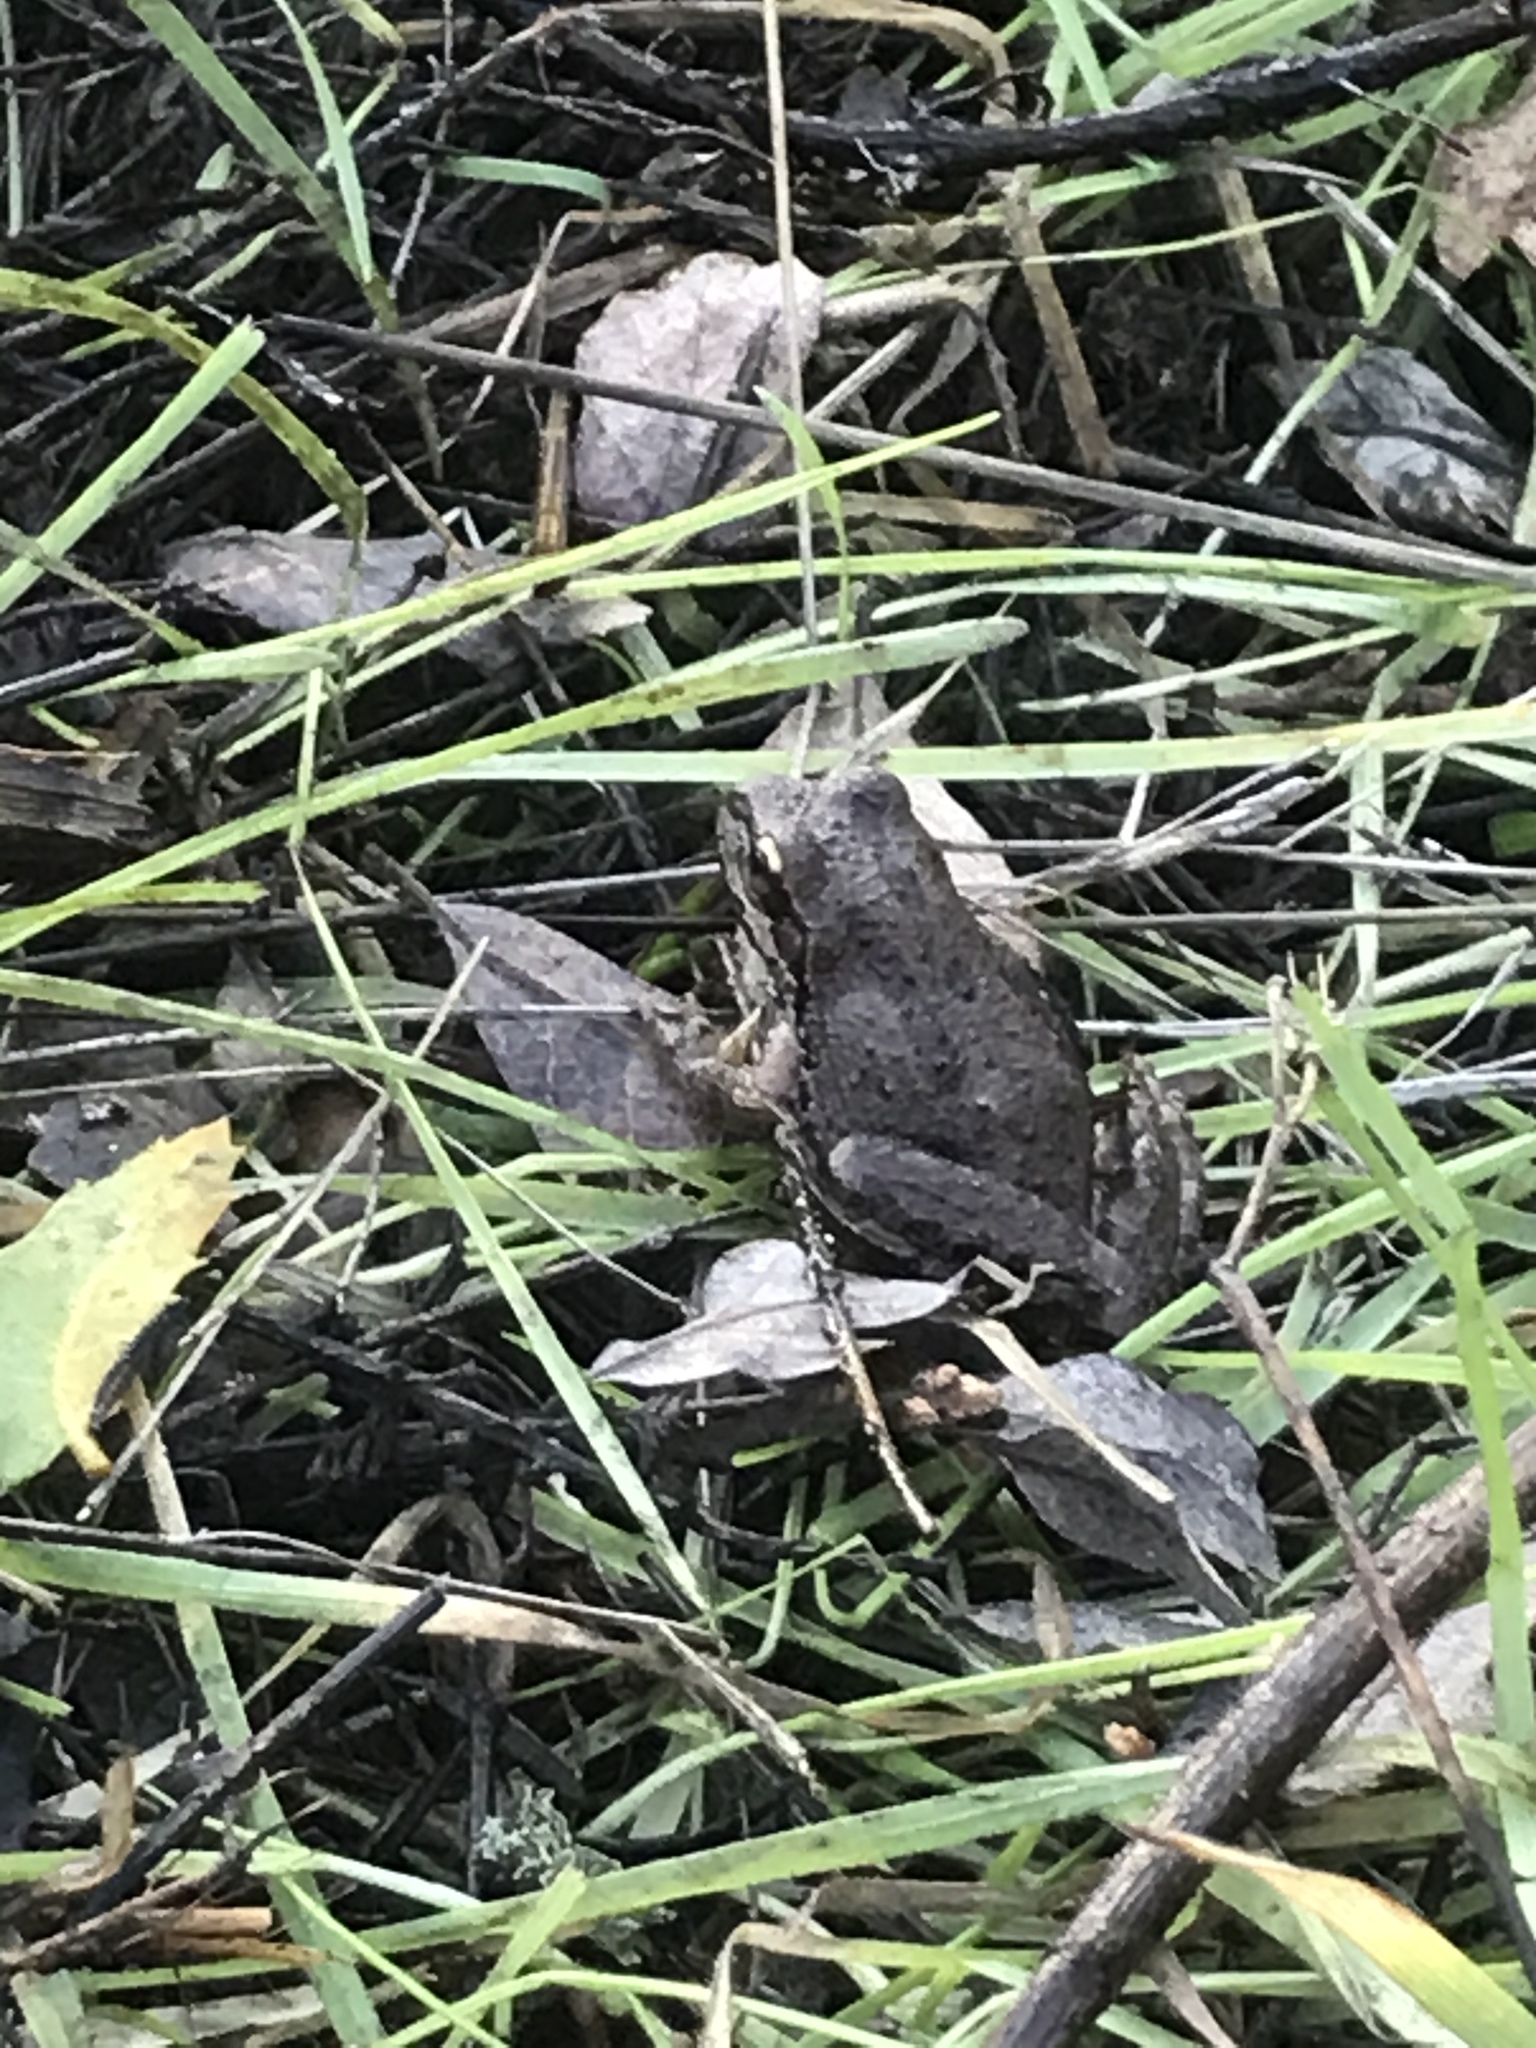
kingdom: Animalia
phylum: Chordata
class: Amphibia
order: Anura
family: Hylidae
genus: Pseudacris
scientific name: Pseudacris regilla
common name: Pacific chorus frog
